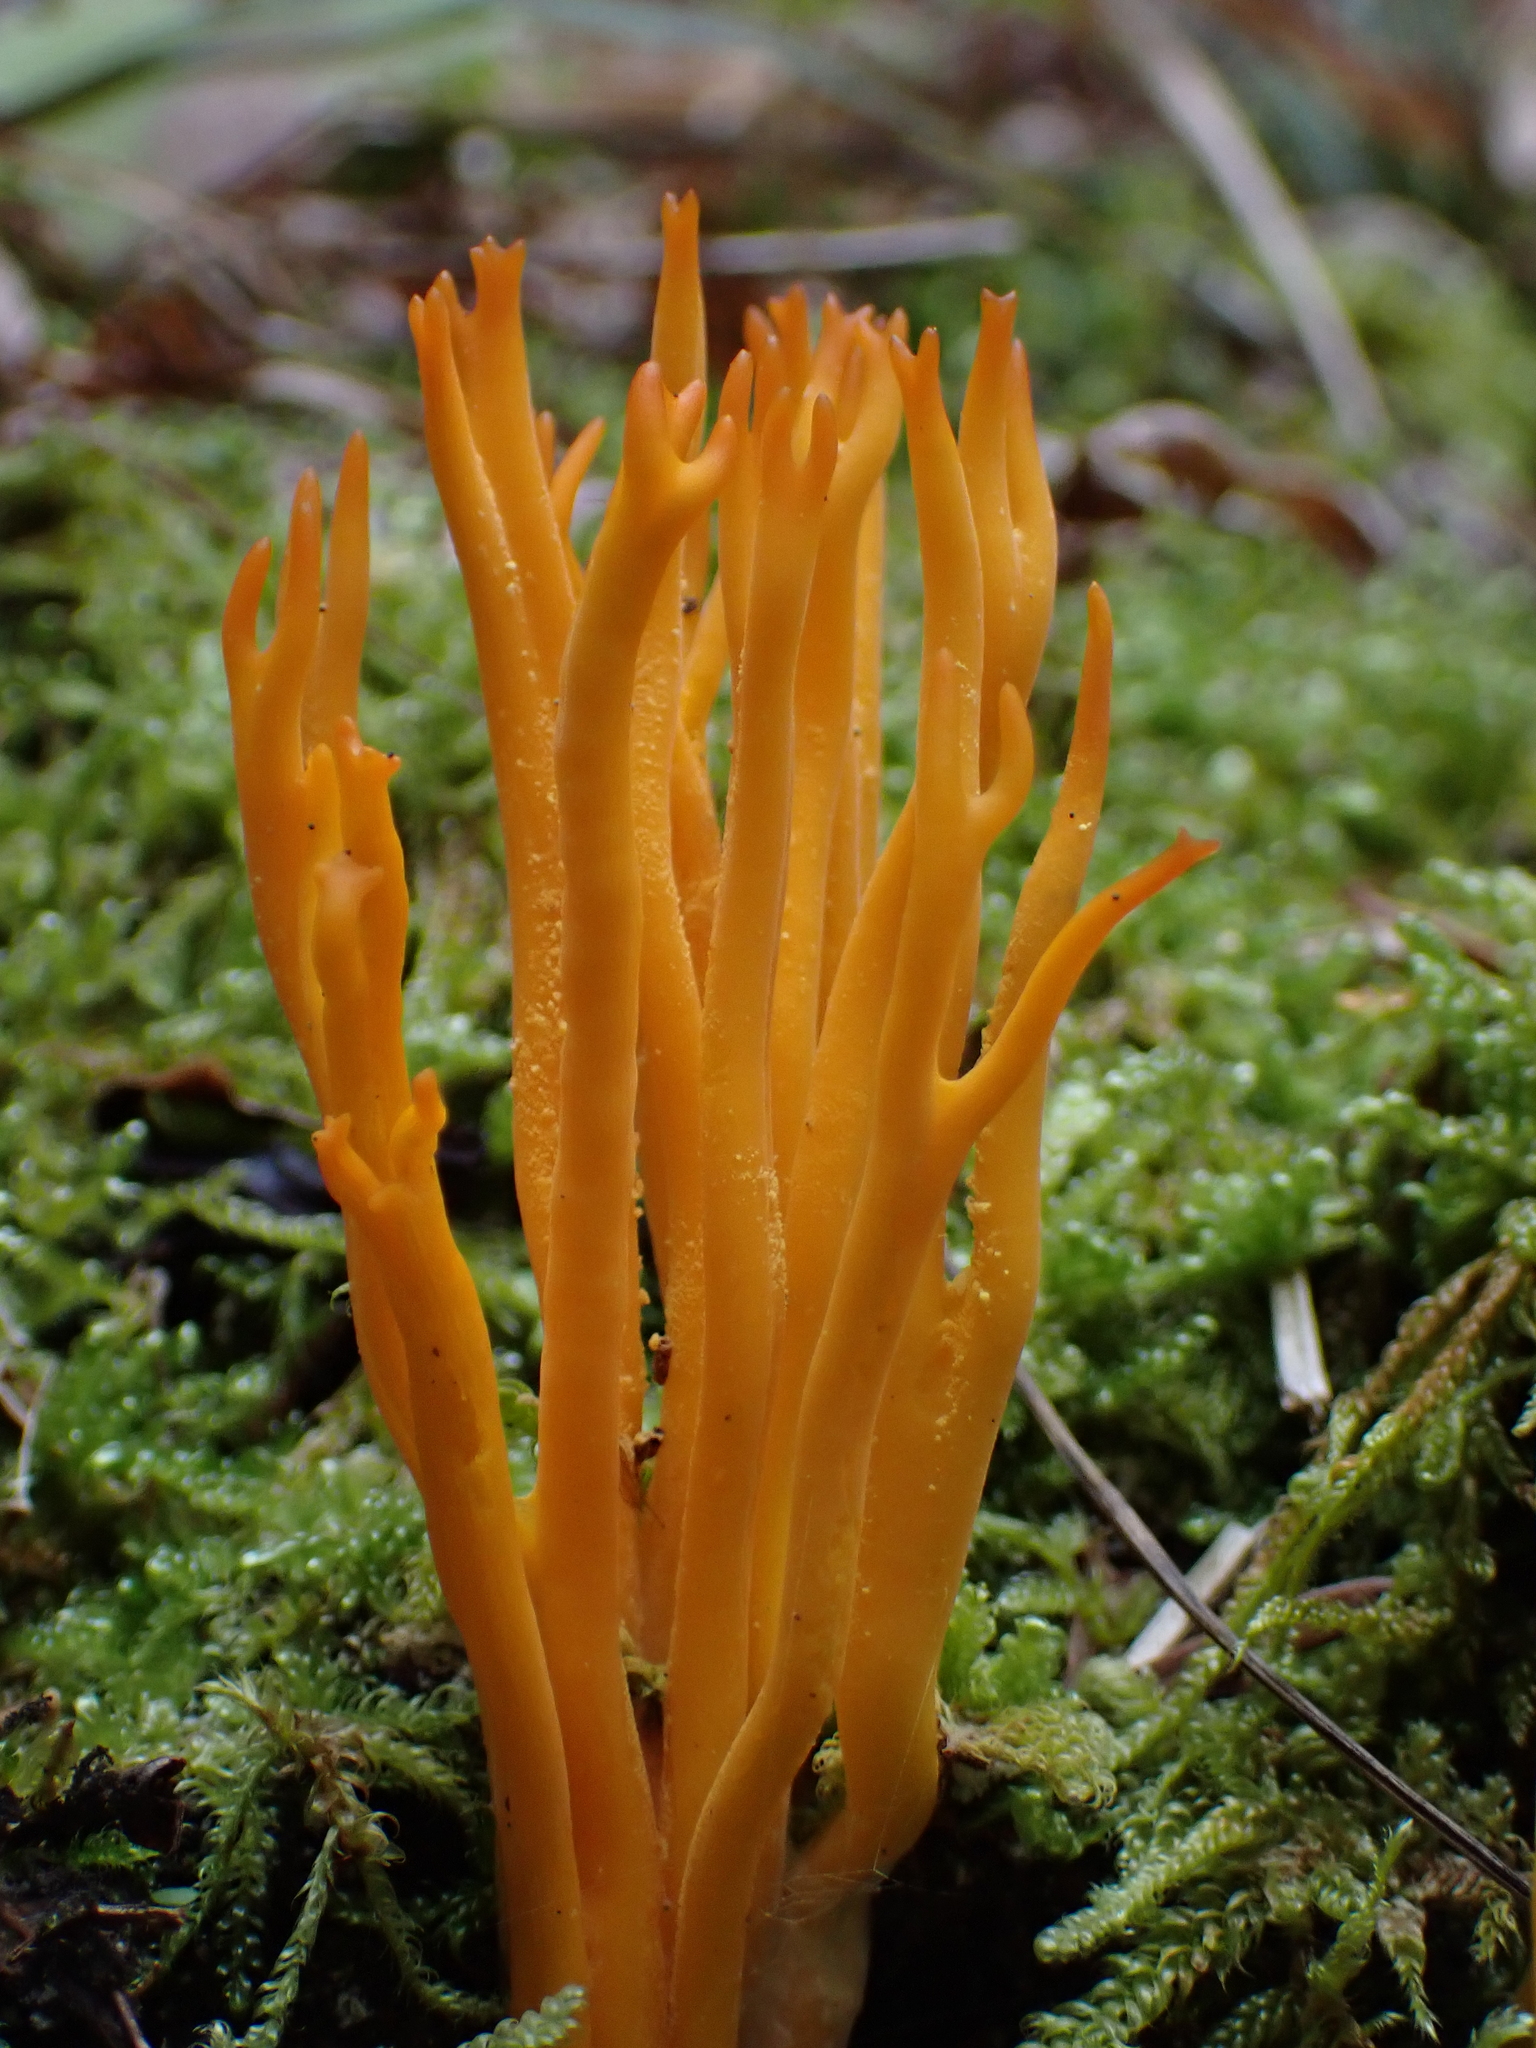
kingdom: Fungi
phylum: Basidiomycota
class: Dacrymycetes
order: Dacrymycetales
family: Dacrymycetaceae
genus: Calocera
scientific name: Calocera viscosa
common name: Yellow stagshorn
